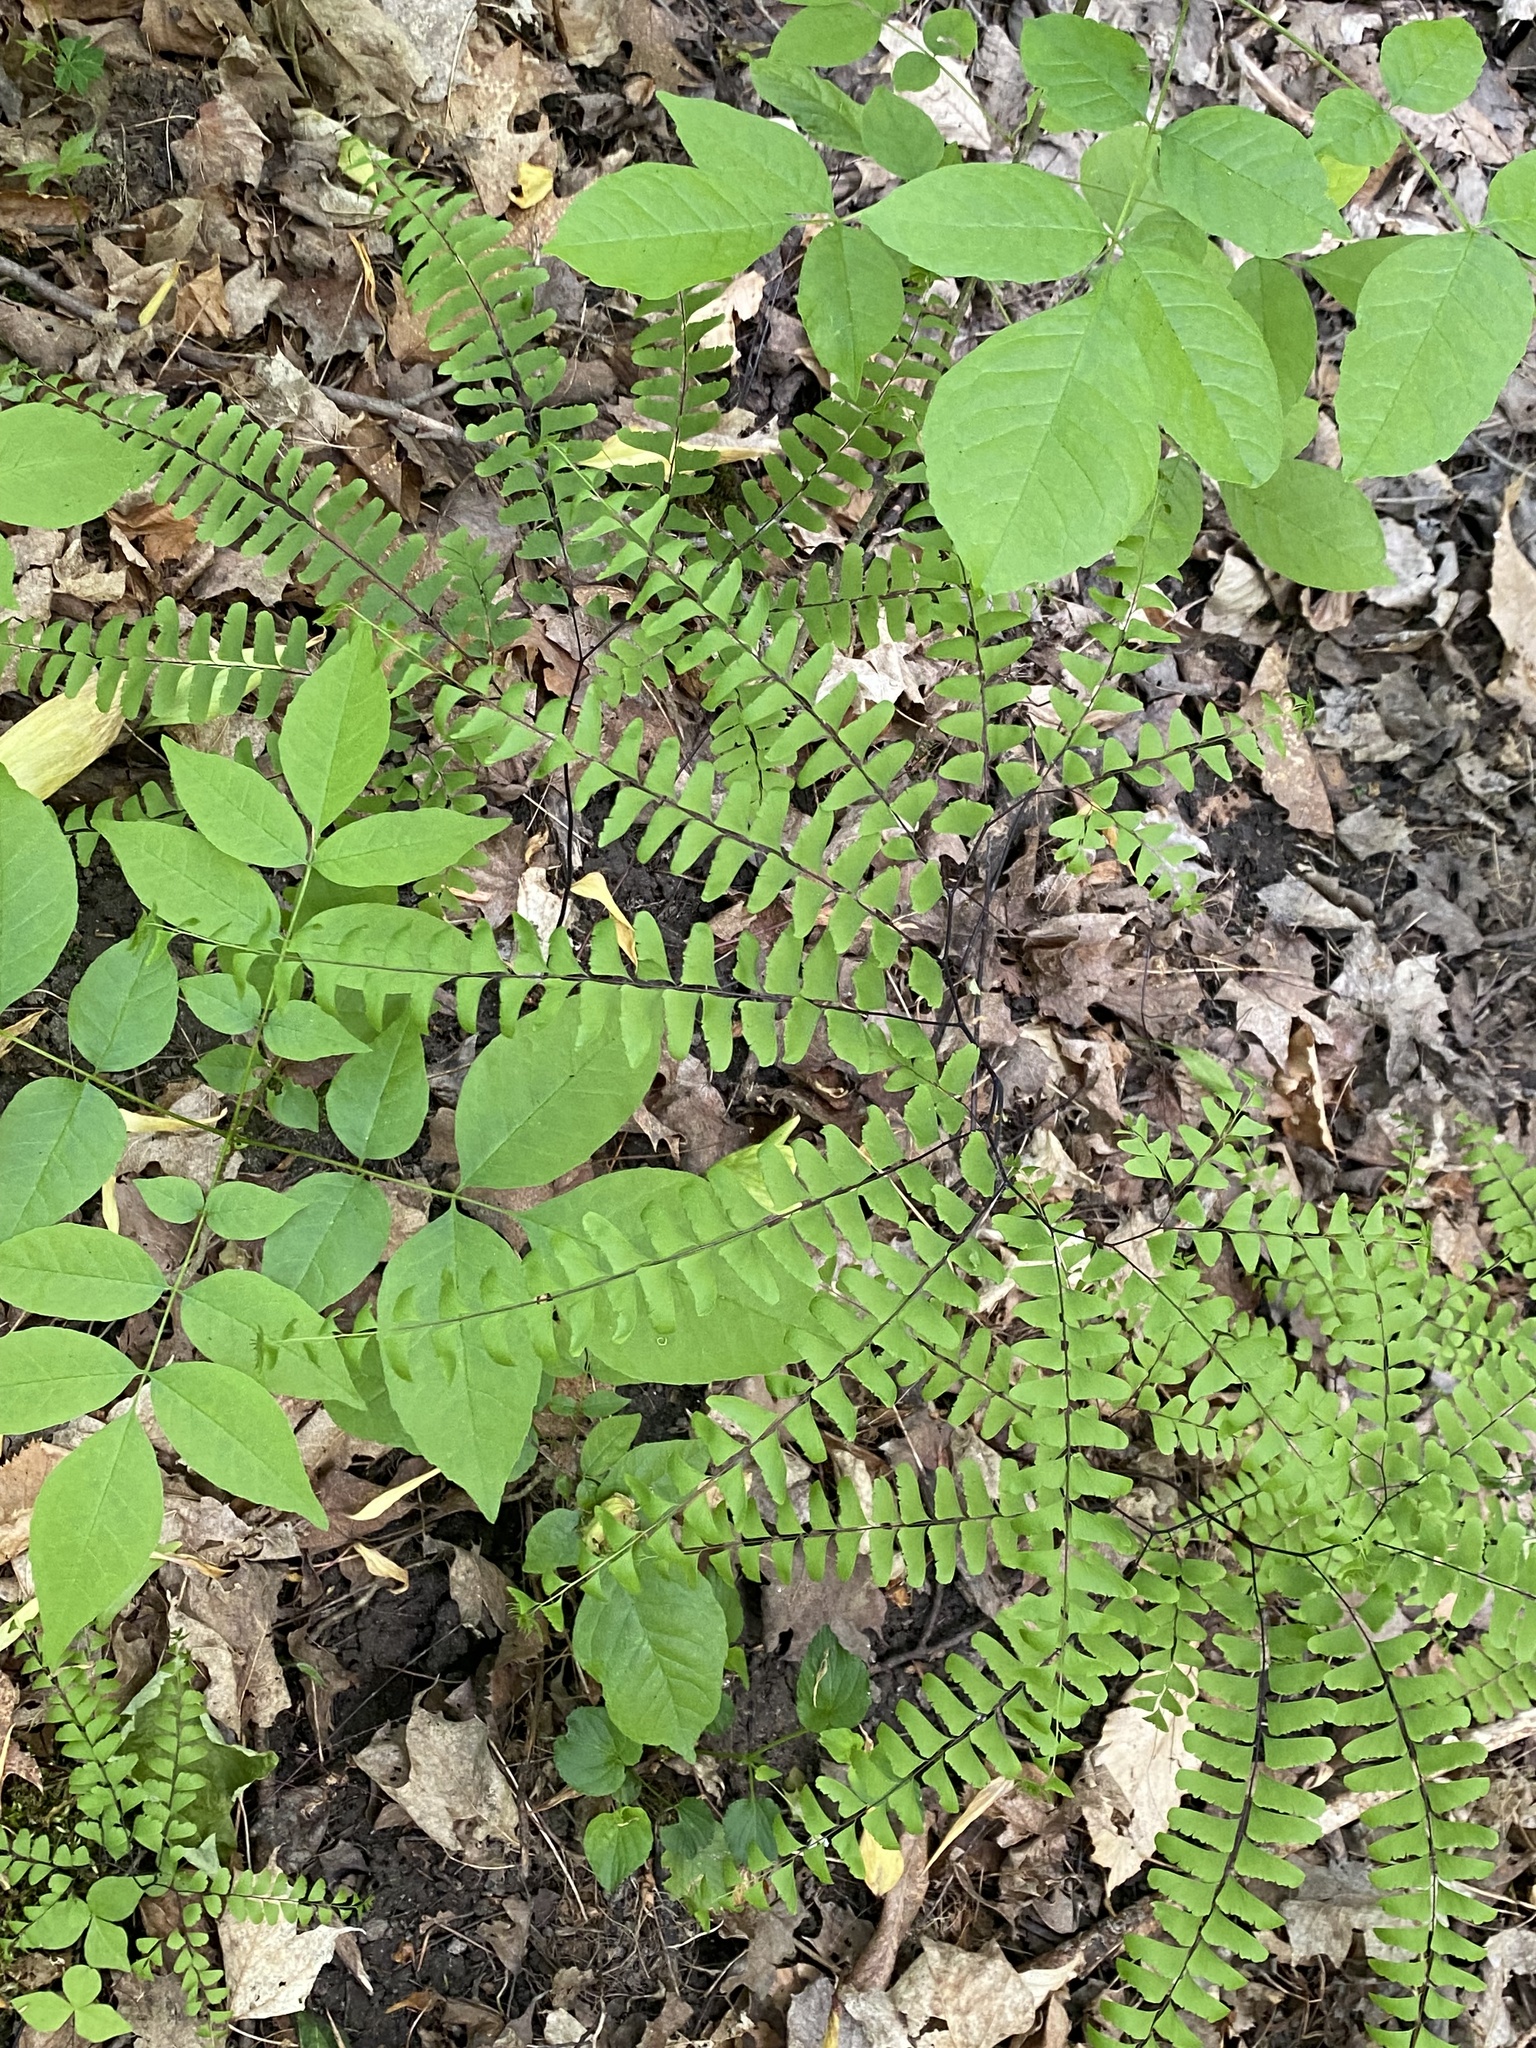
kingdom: Plantae
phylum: Tracheophyta
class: Polypodiopsida
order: Polypodiales
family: Pteridaceae
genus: Adiantum
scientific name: Adiantum pedatum
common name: Five-finger fern
